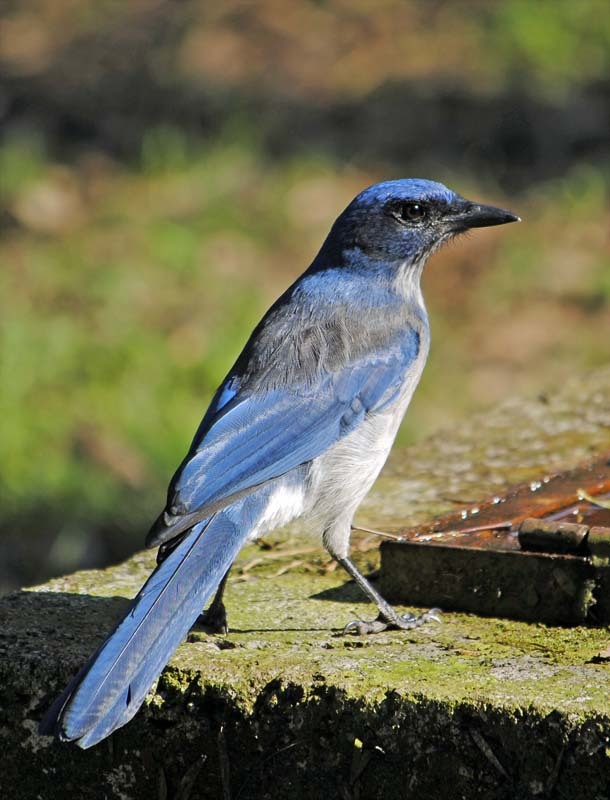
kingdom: Animalia
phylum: Chordata
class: Aves
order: Passeriformes
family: Corvidae
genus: Aphelocoma
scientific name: Aphelocoma ultramarina
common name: Transvolcanic jay
